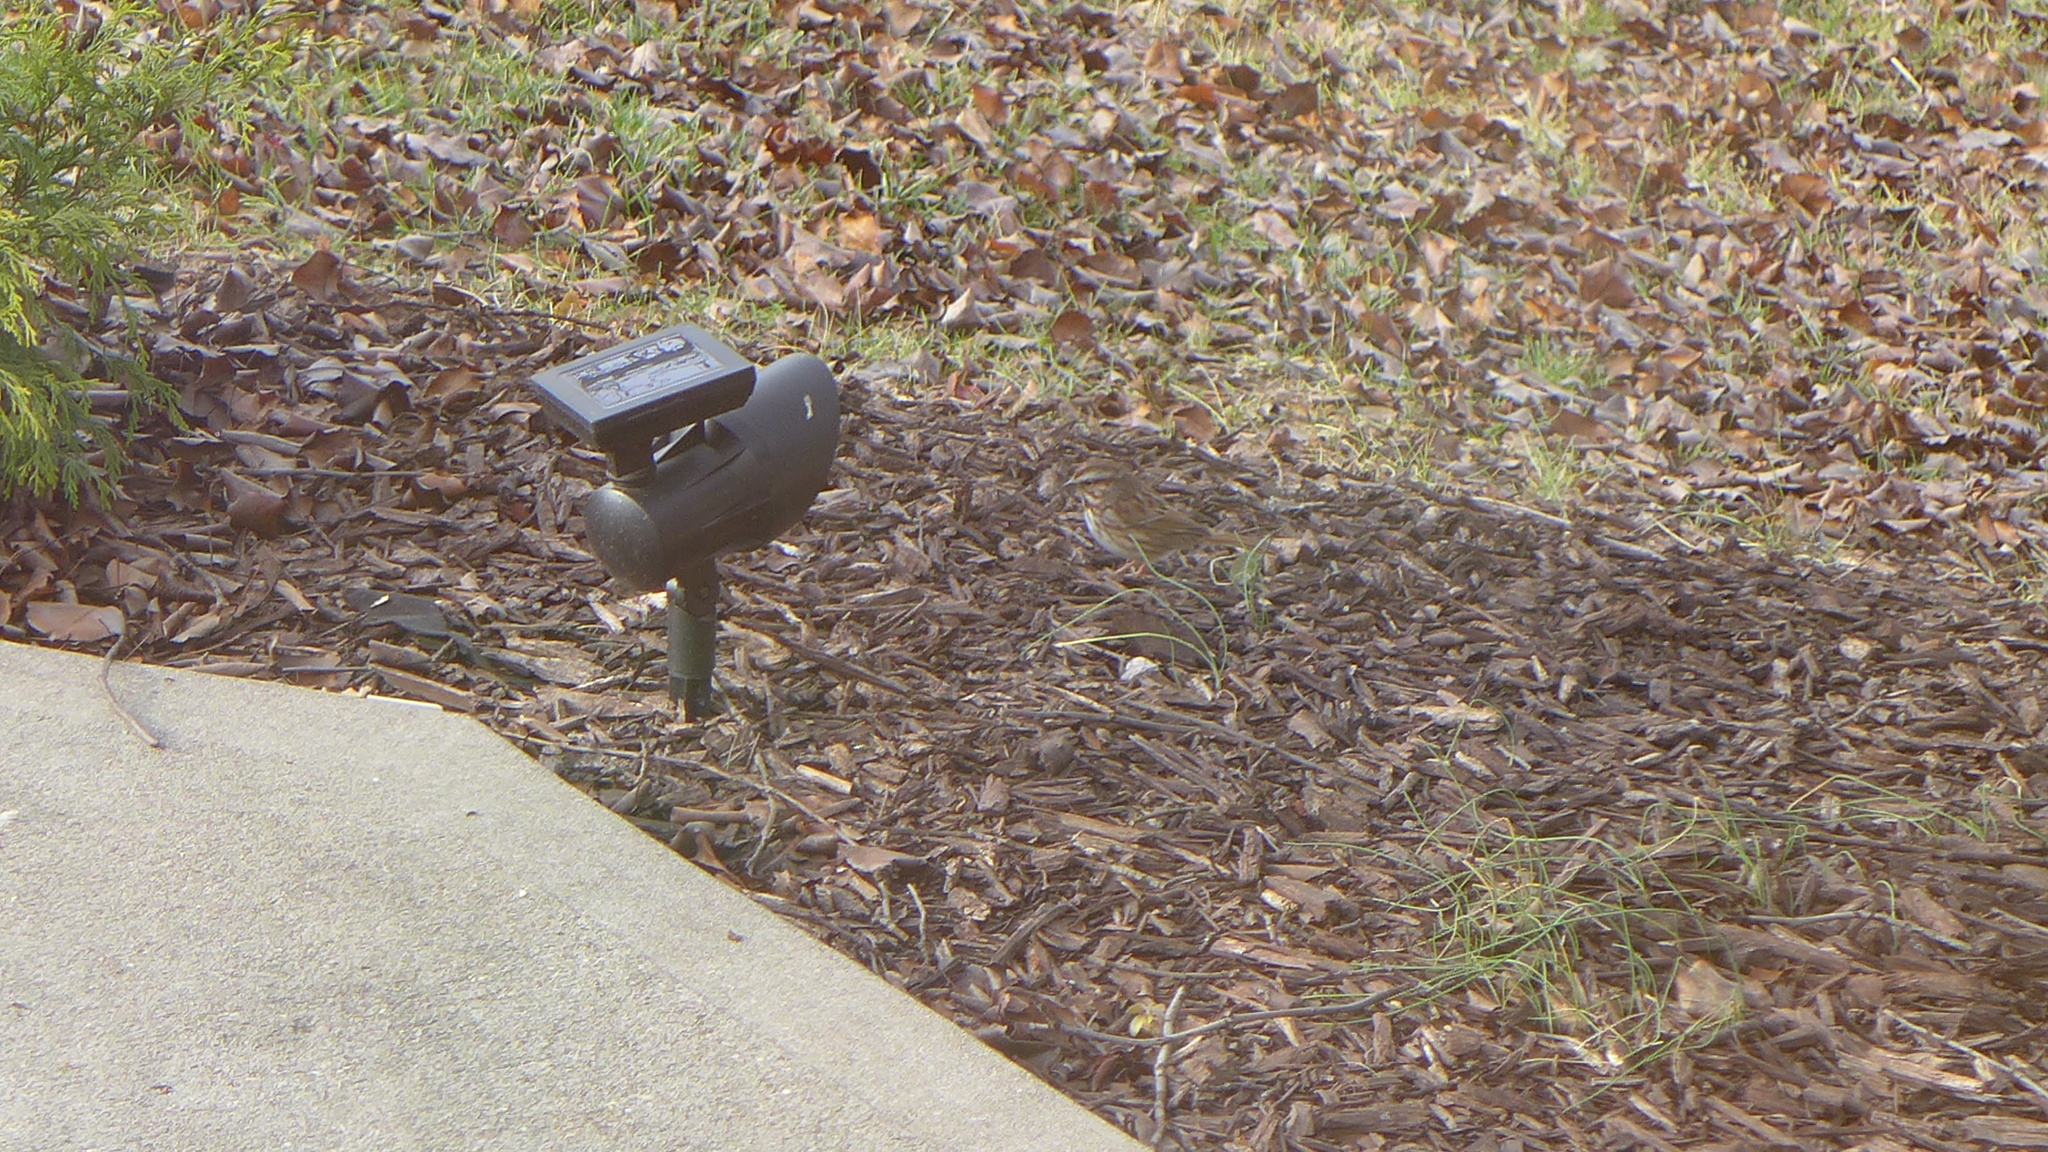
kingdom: Animalia
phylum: Chordata
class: Aves
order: Passeriformes
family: Passerellidae
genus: Melospiza
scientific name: Melospiza melodia
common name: Song sparrow
